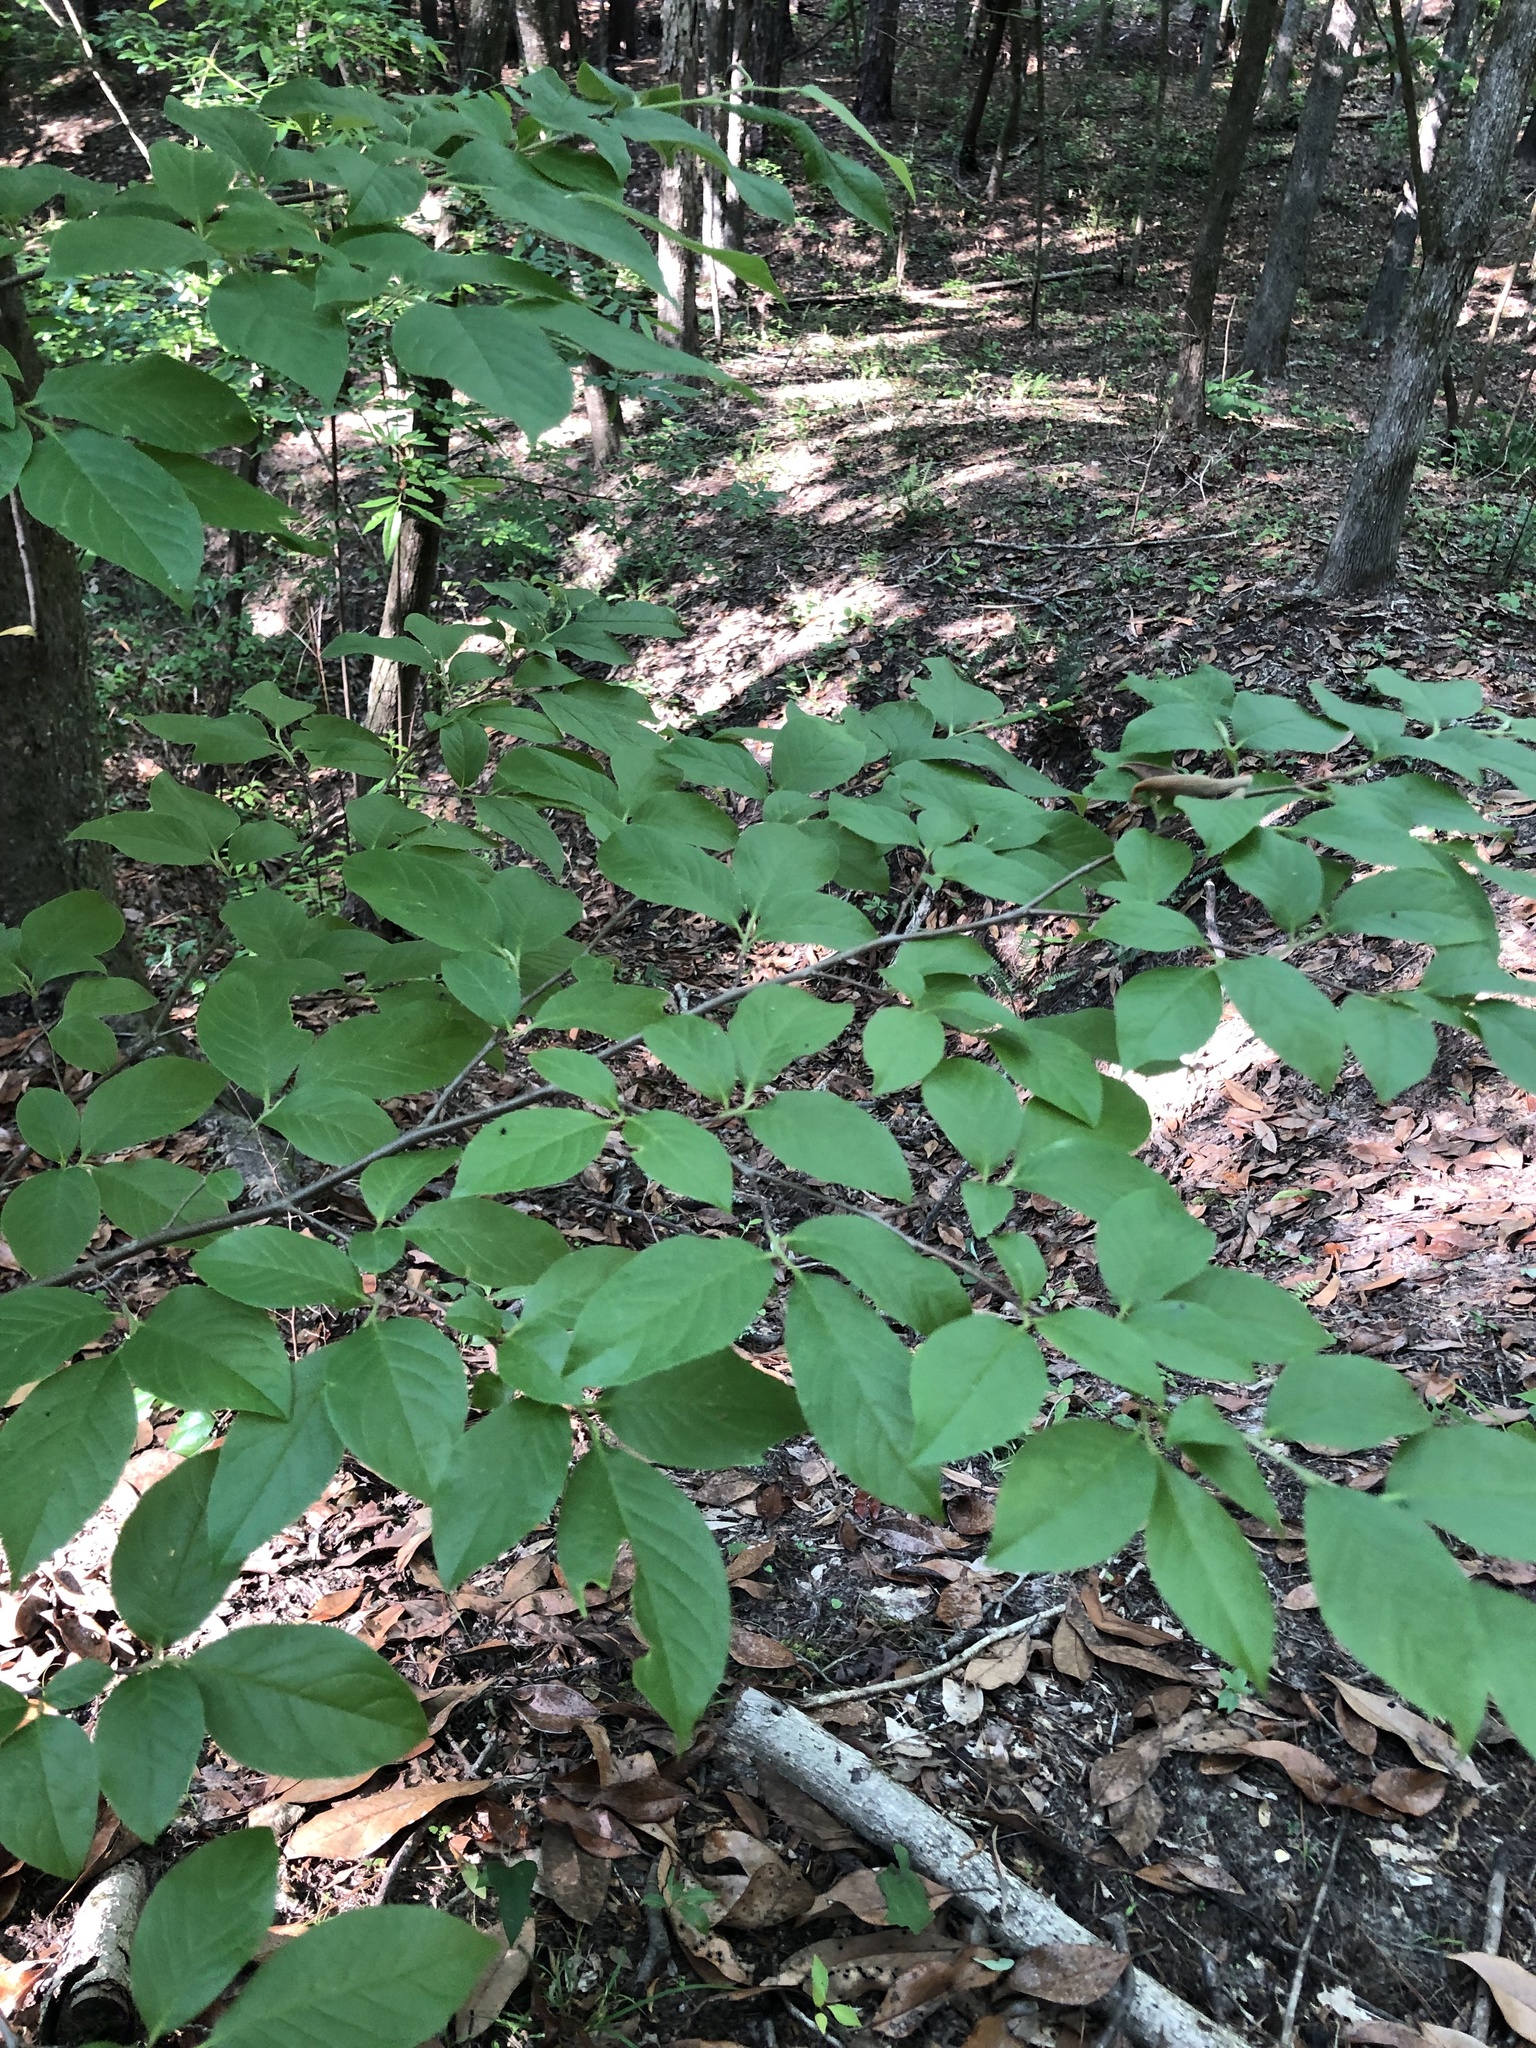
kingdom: Plantae
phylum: Tracheophyta
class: Magnoliopsida
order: Ericales
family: Theaceae
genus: Stewartia
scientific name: Stewartia malacodendron
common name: Virginia stewartia
